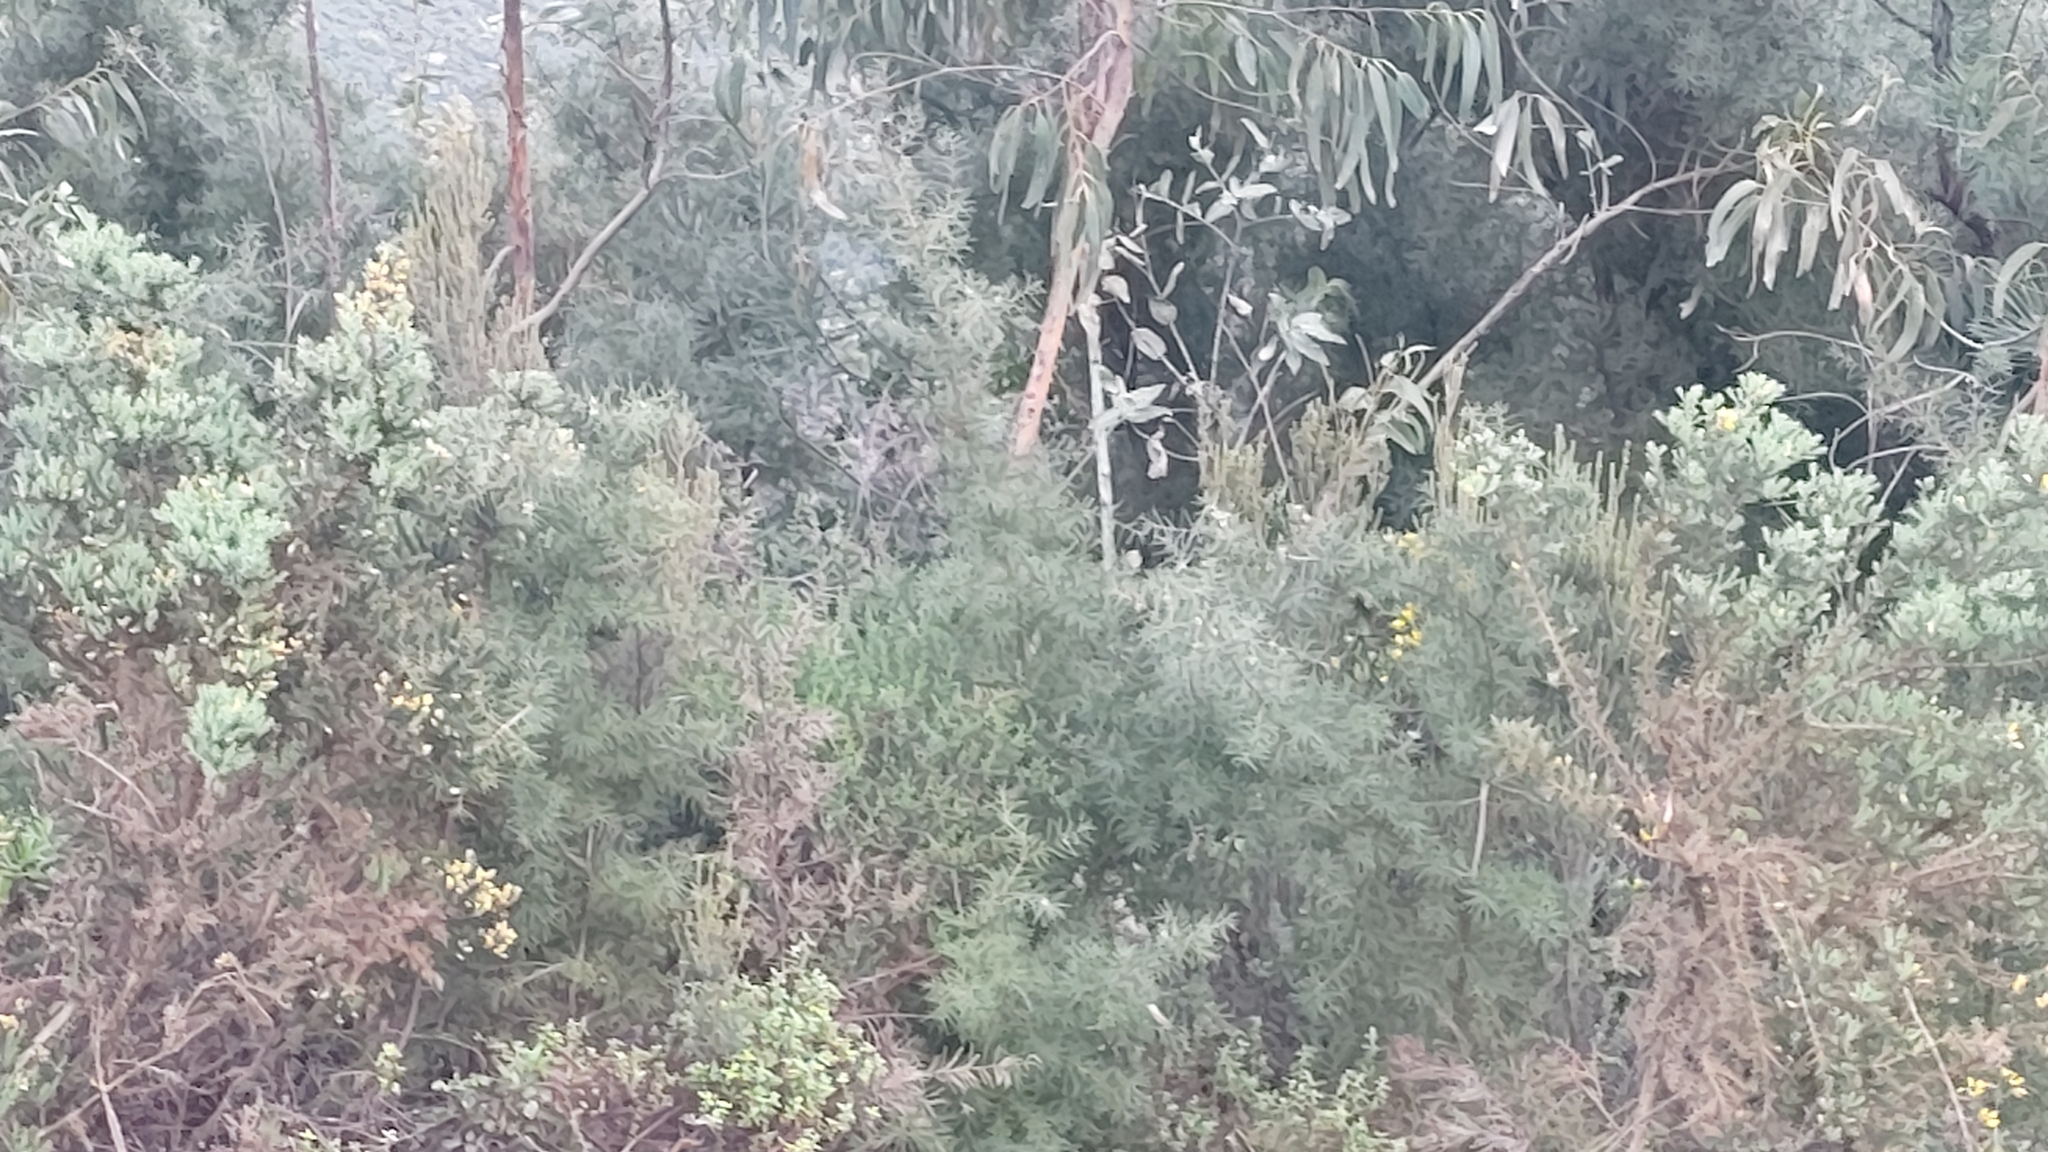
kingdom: Plantae
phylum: Tracheophyta
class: Magnoliopsida
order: Proteales
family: Proteaceae
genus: Hakea
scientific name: Hakea decurrens
